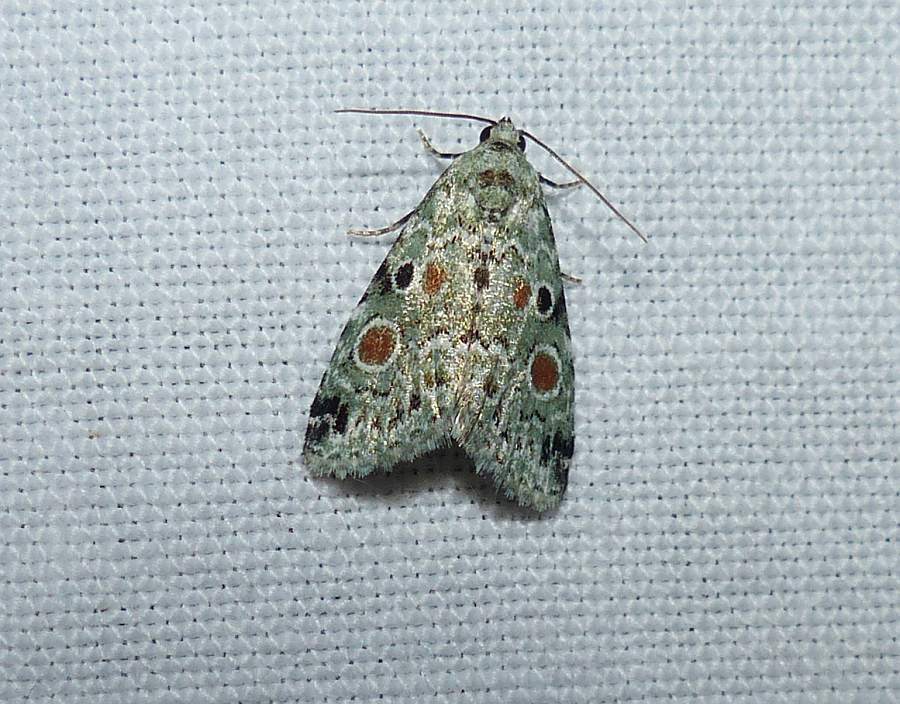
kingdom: Animalia
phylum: Arthropoda
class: Insecta
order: Lepidoptera
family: Noctuidae
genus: Maliattha
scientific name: Maliattha concinnimacula
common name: Red-spotted glyph
